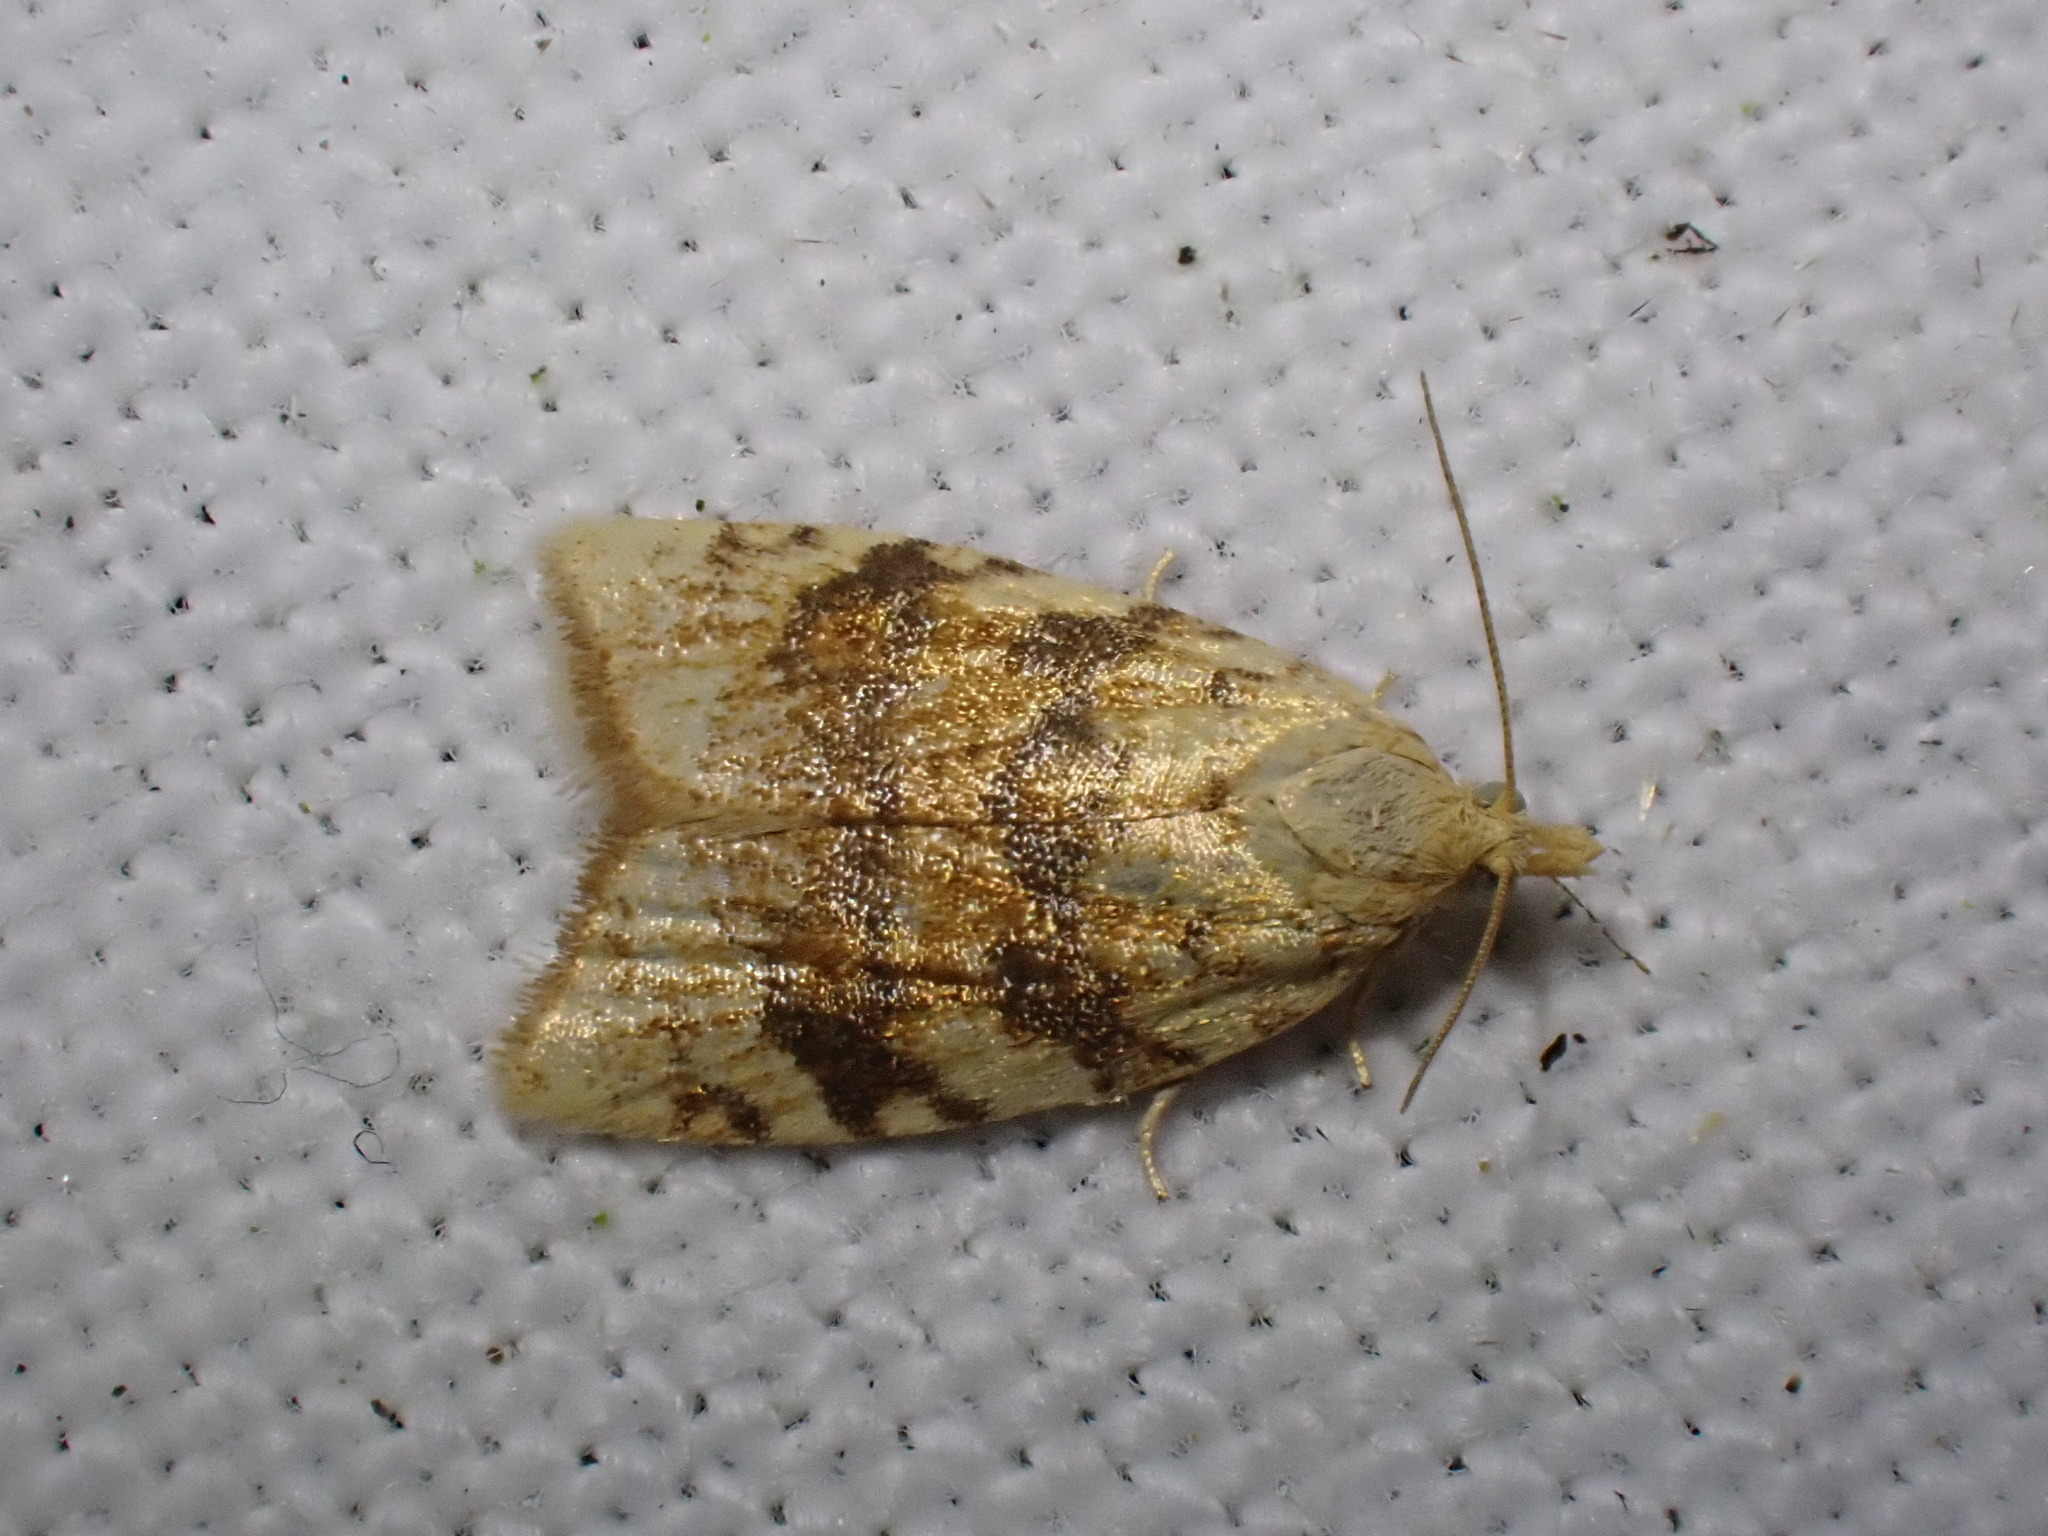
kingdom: Animalia
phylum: Arthropoda
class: Insecta
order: Lepidoptera
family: Tortricidae
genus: Aleimma
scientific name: Aleimma loeflingiana
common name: Yellow oak button
